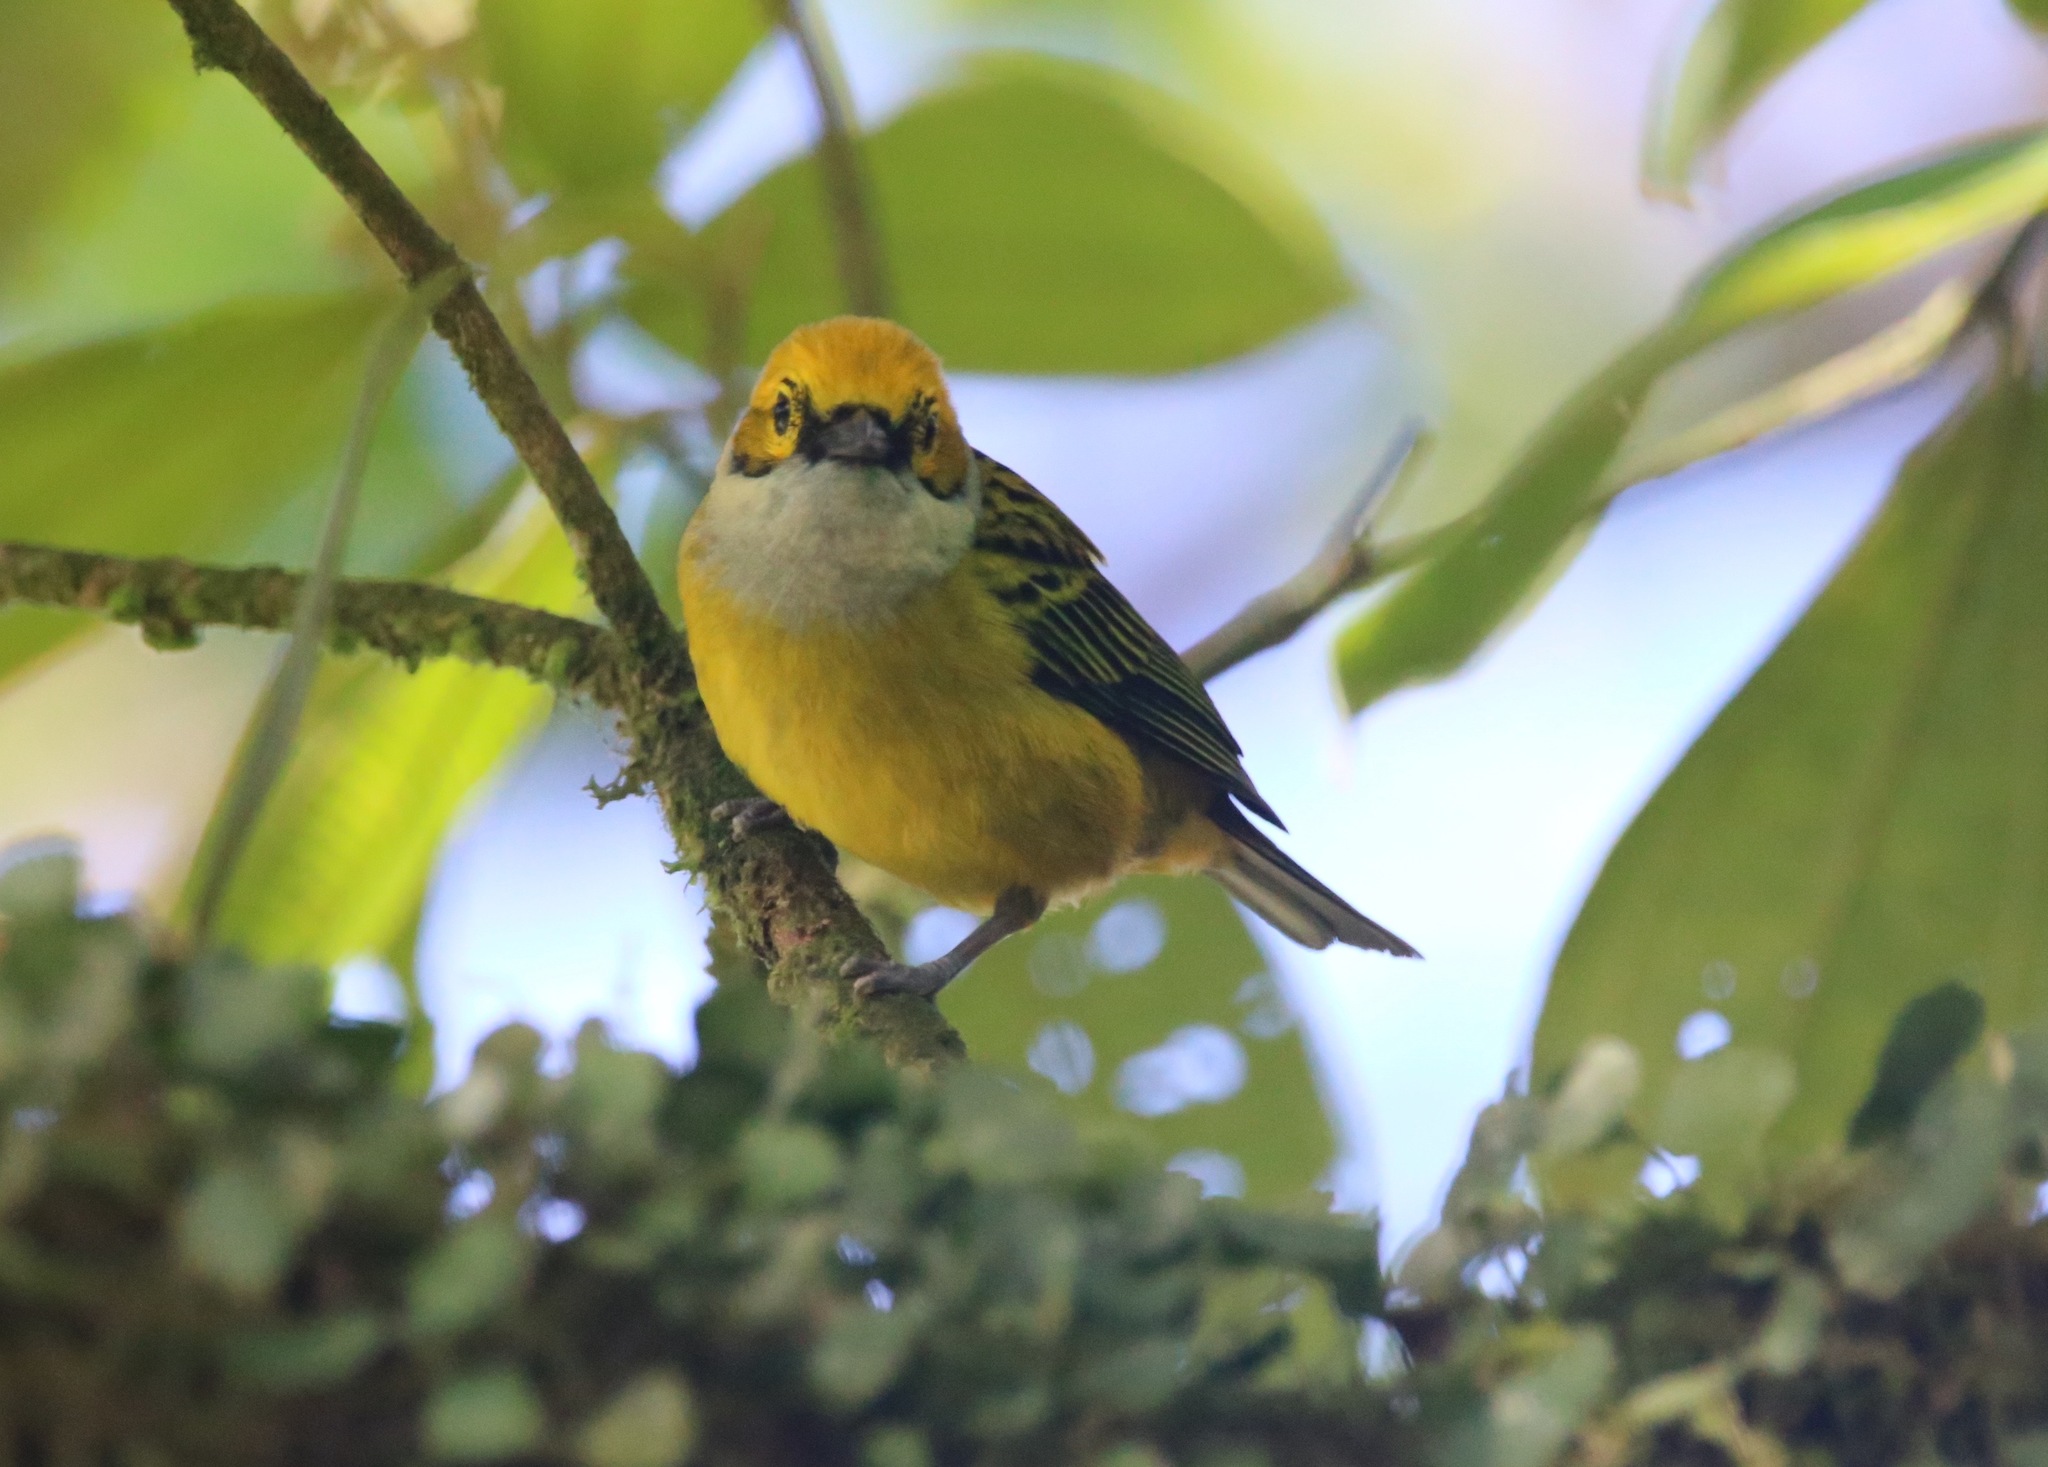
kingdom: Animalia
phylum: Chordata
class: Aves
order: Passeriformes
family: Thraupidae
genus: Tangara
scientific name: Tangara icterocephala
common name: Silver-throated tanager
